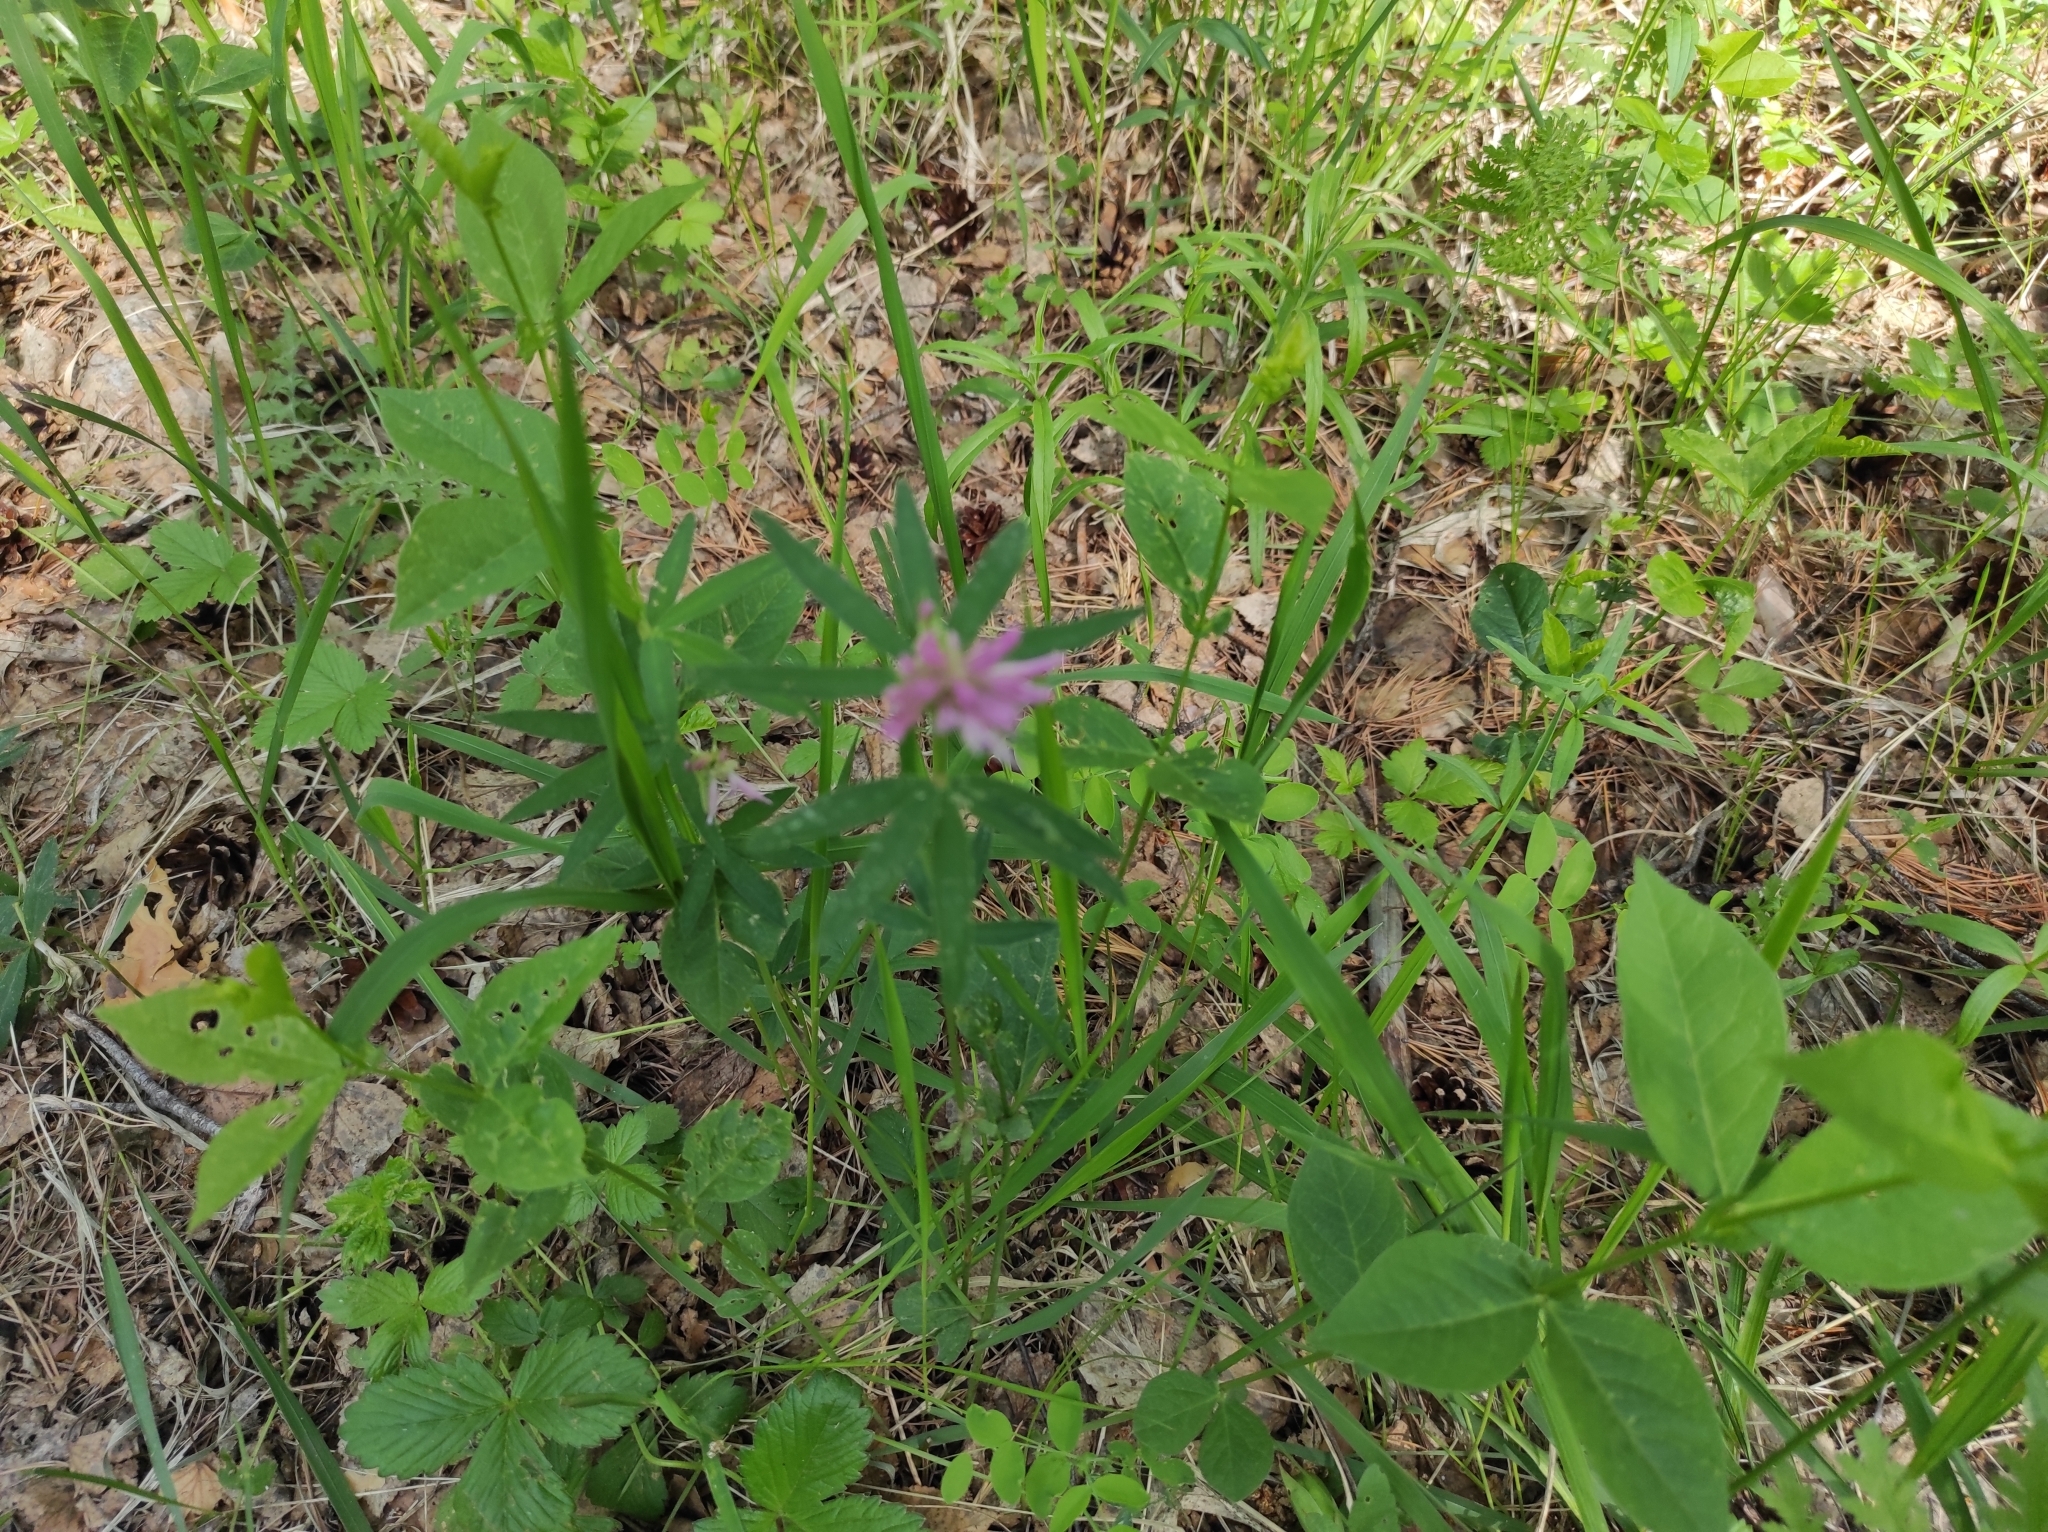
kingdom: Plantae
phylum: Tracheophyta
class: Magnoliopsida
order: Fabales
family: Fabaceae
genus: Trifolium
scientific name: Trifolium lupinaster
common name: Lupine clover
